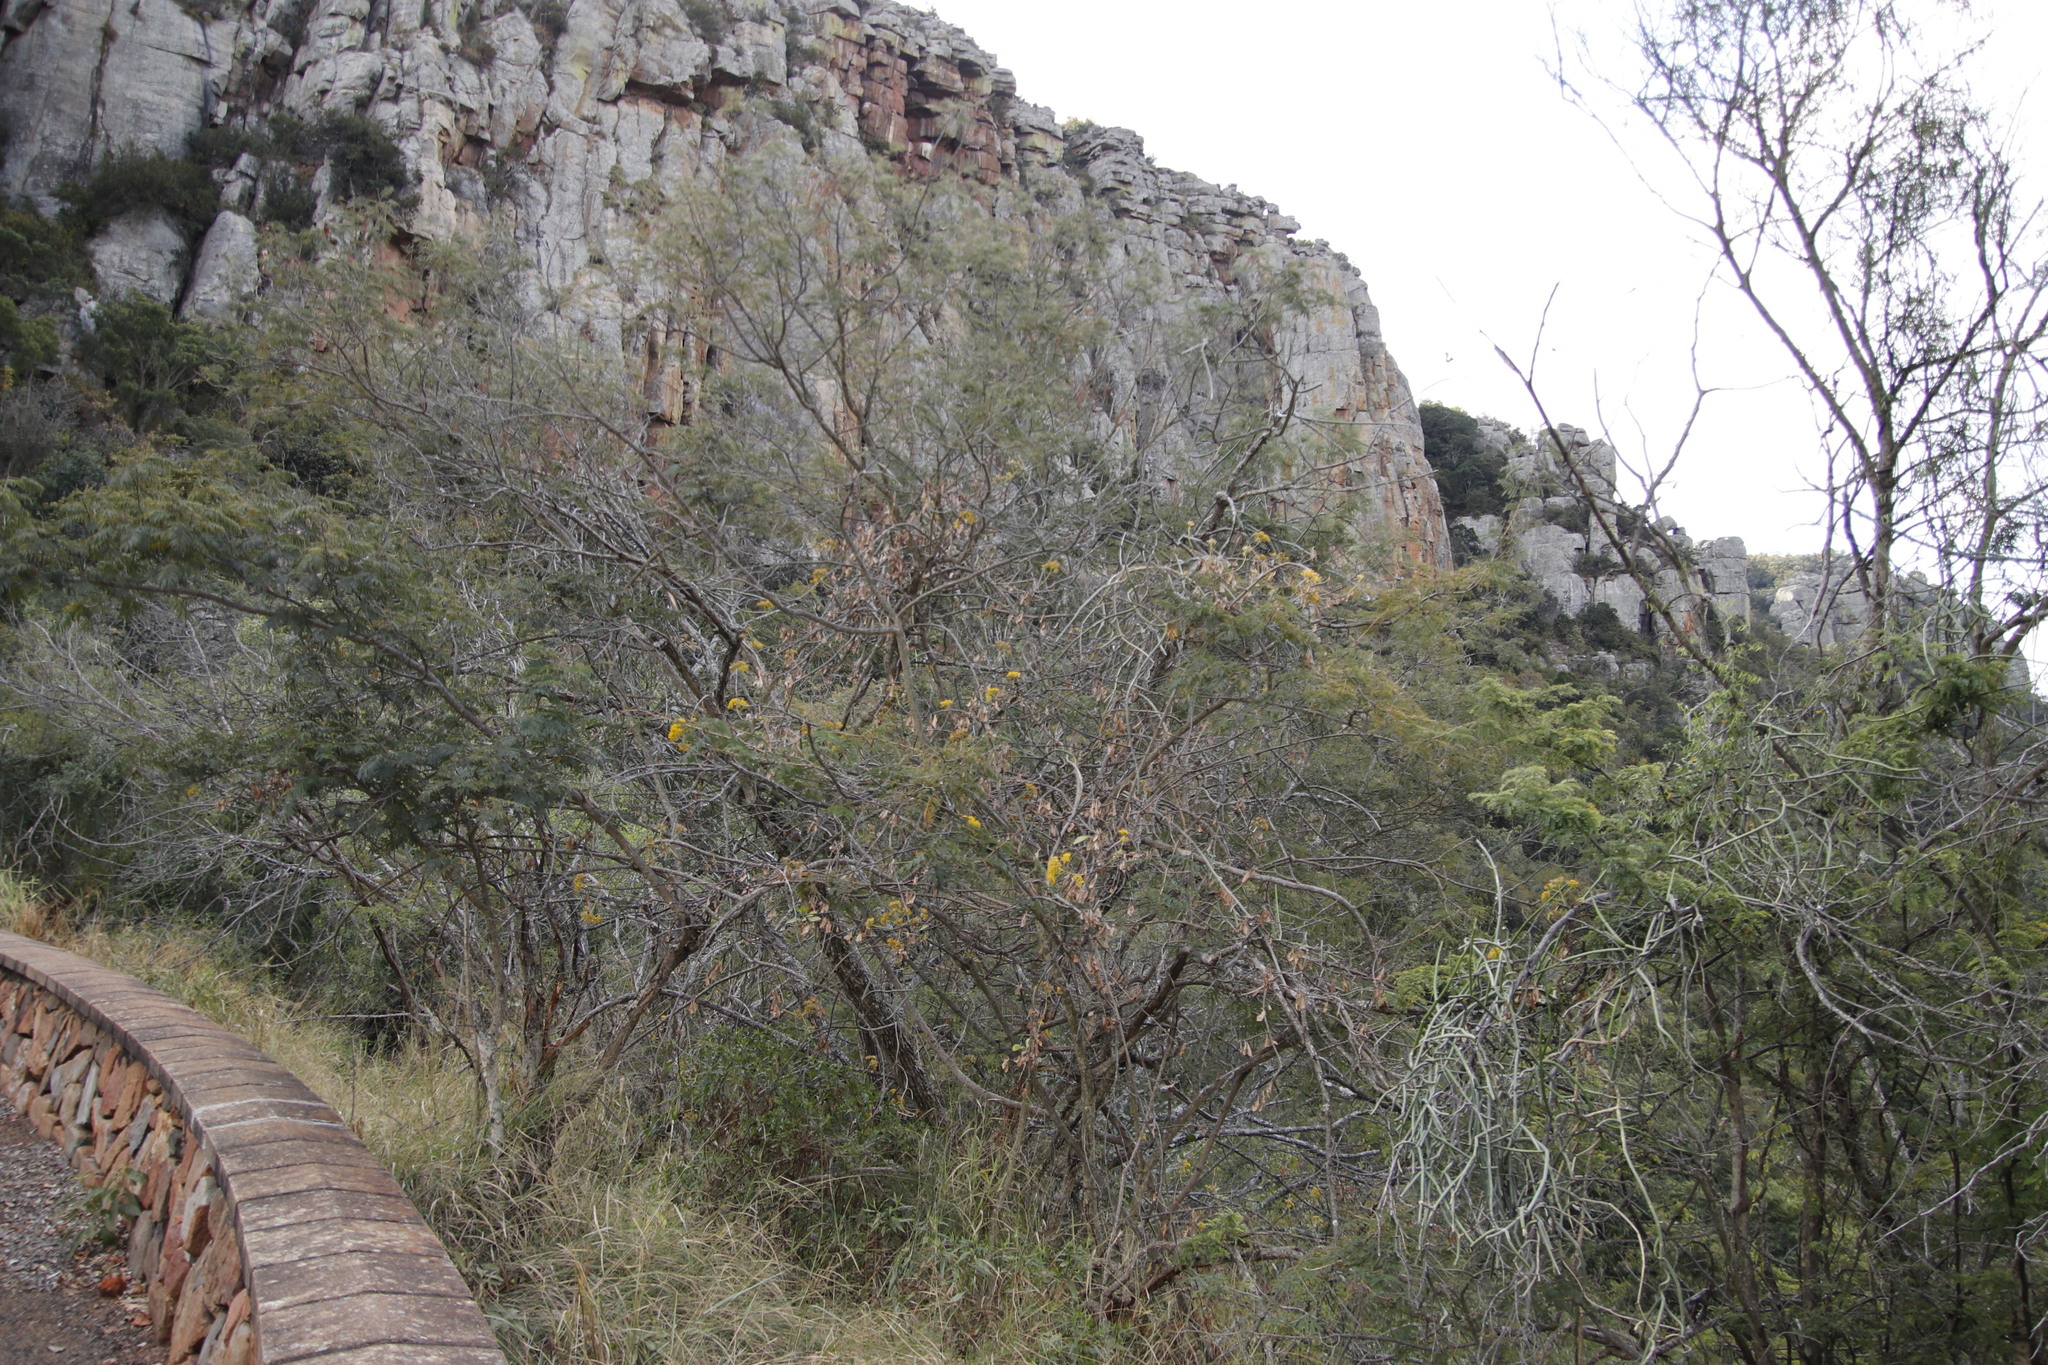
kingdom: Plantae
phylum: Tracheophyta
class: Magnoliopsida
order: Asterales
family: Asteraceae
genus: Senecio
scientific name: Senecio brachypodus
